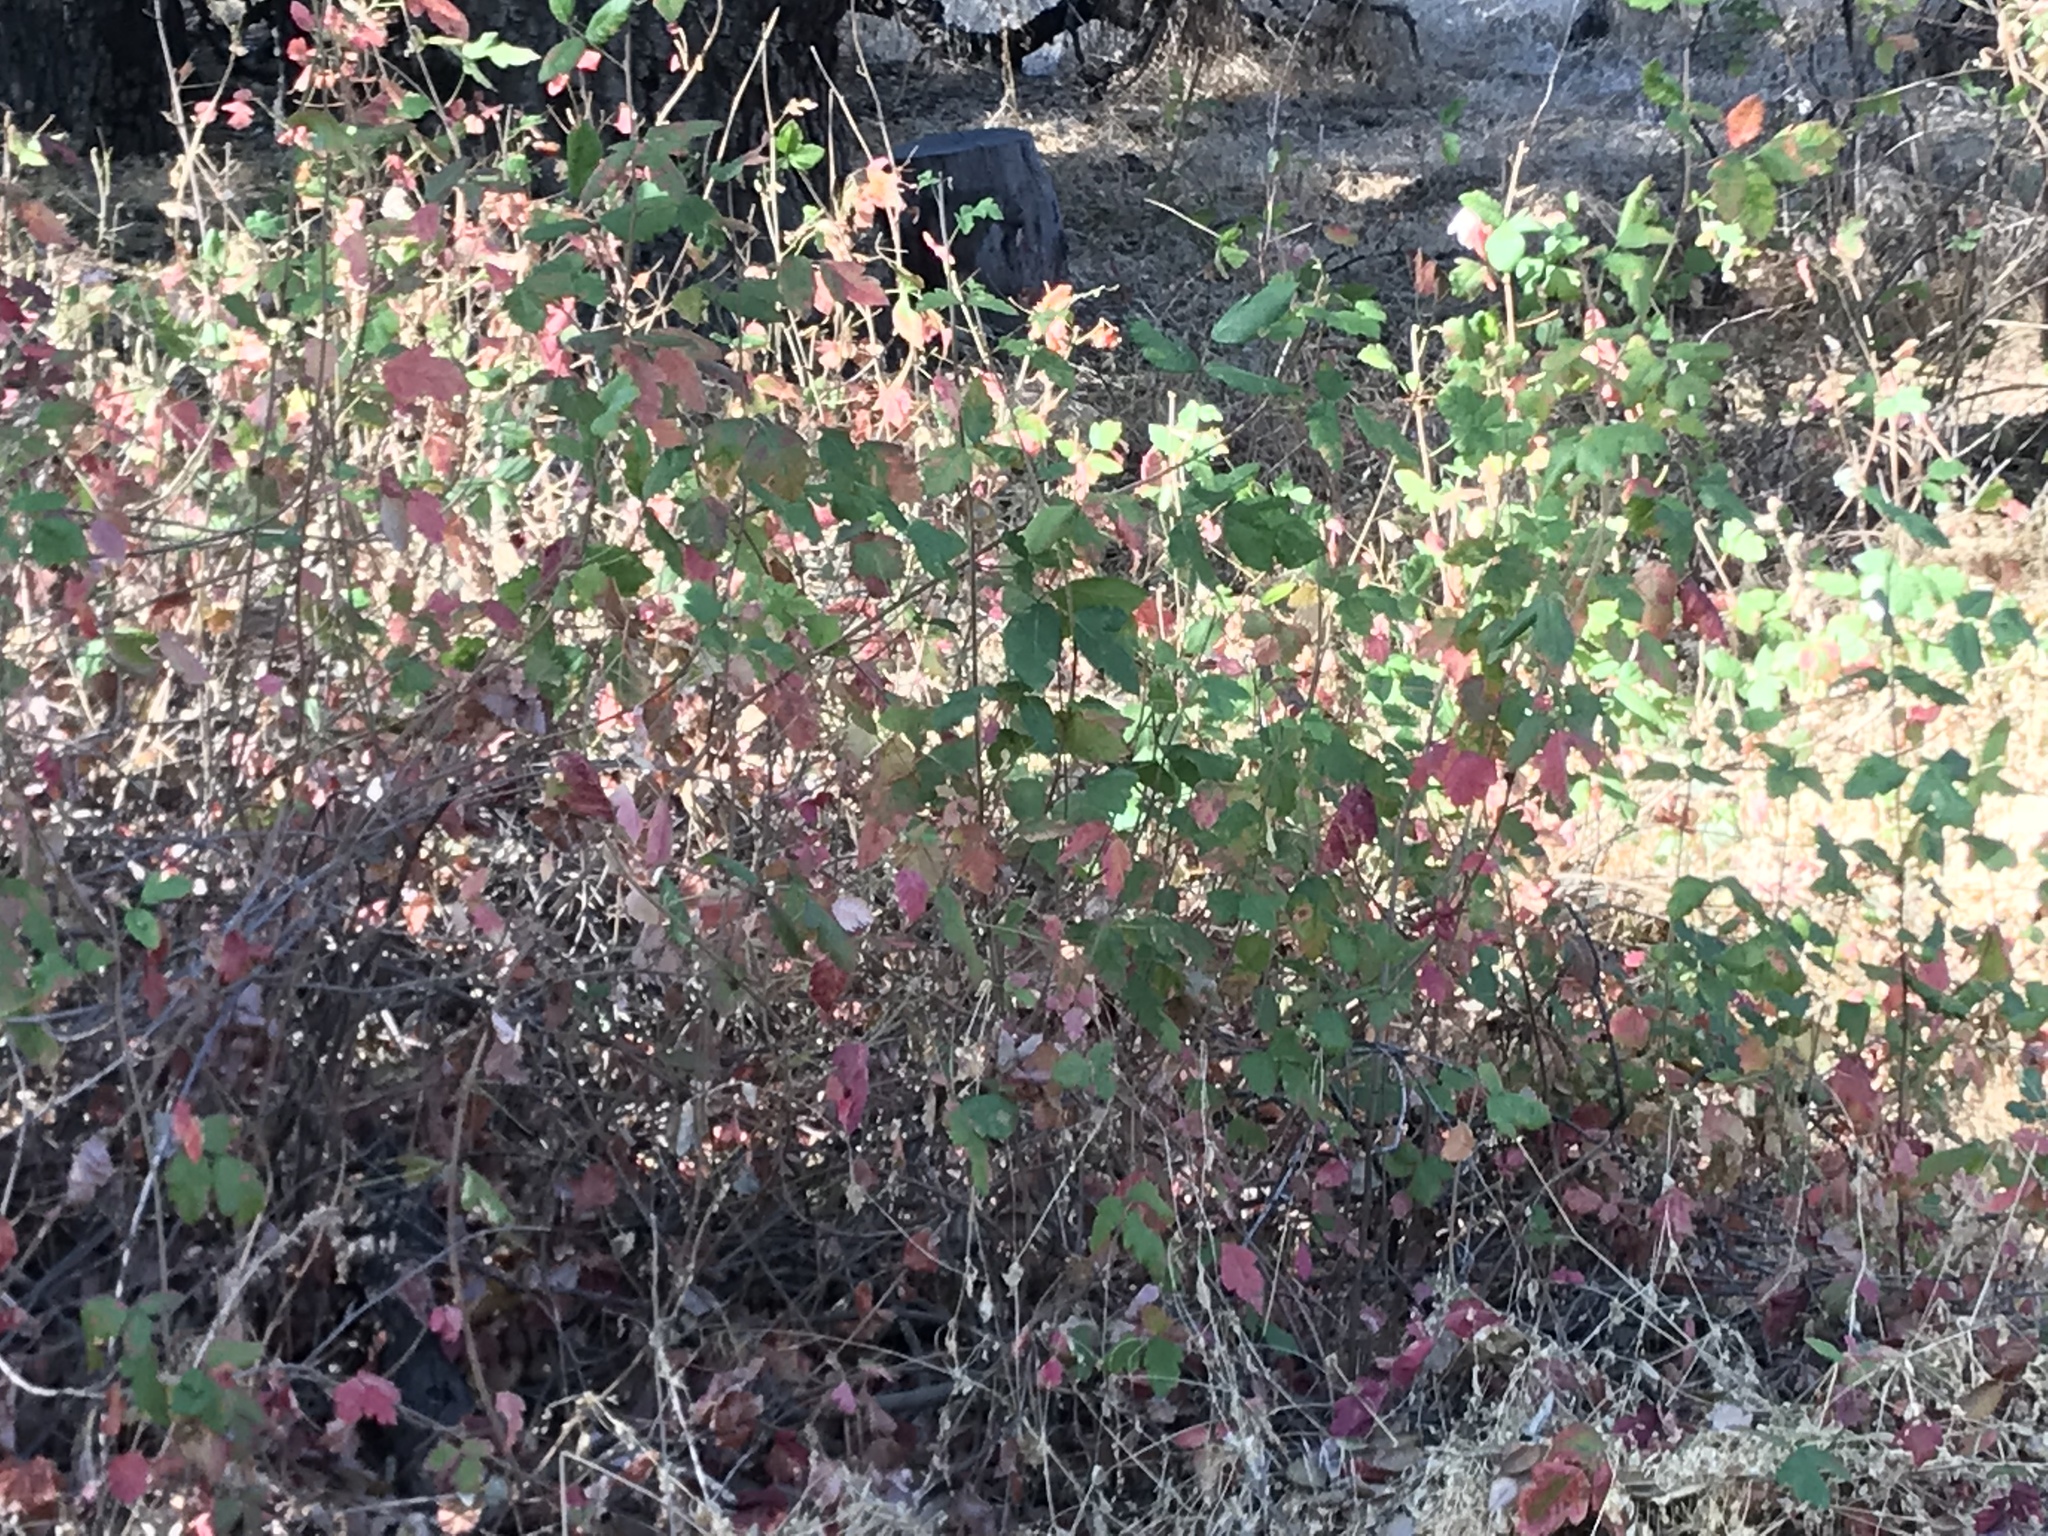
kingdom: Plantae
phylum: Tracheophyta
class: Magnoliopsida
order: Sapindales
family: Anacardiaceae
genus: Toxicodendron
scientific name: Toxicodendron diversilobum
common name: Pacific poison-oak
